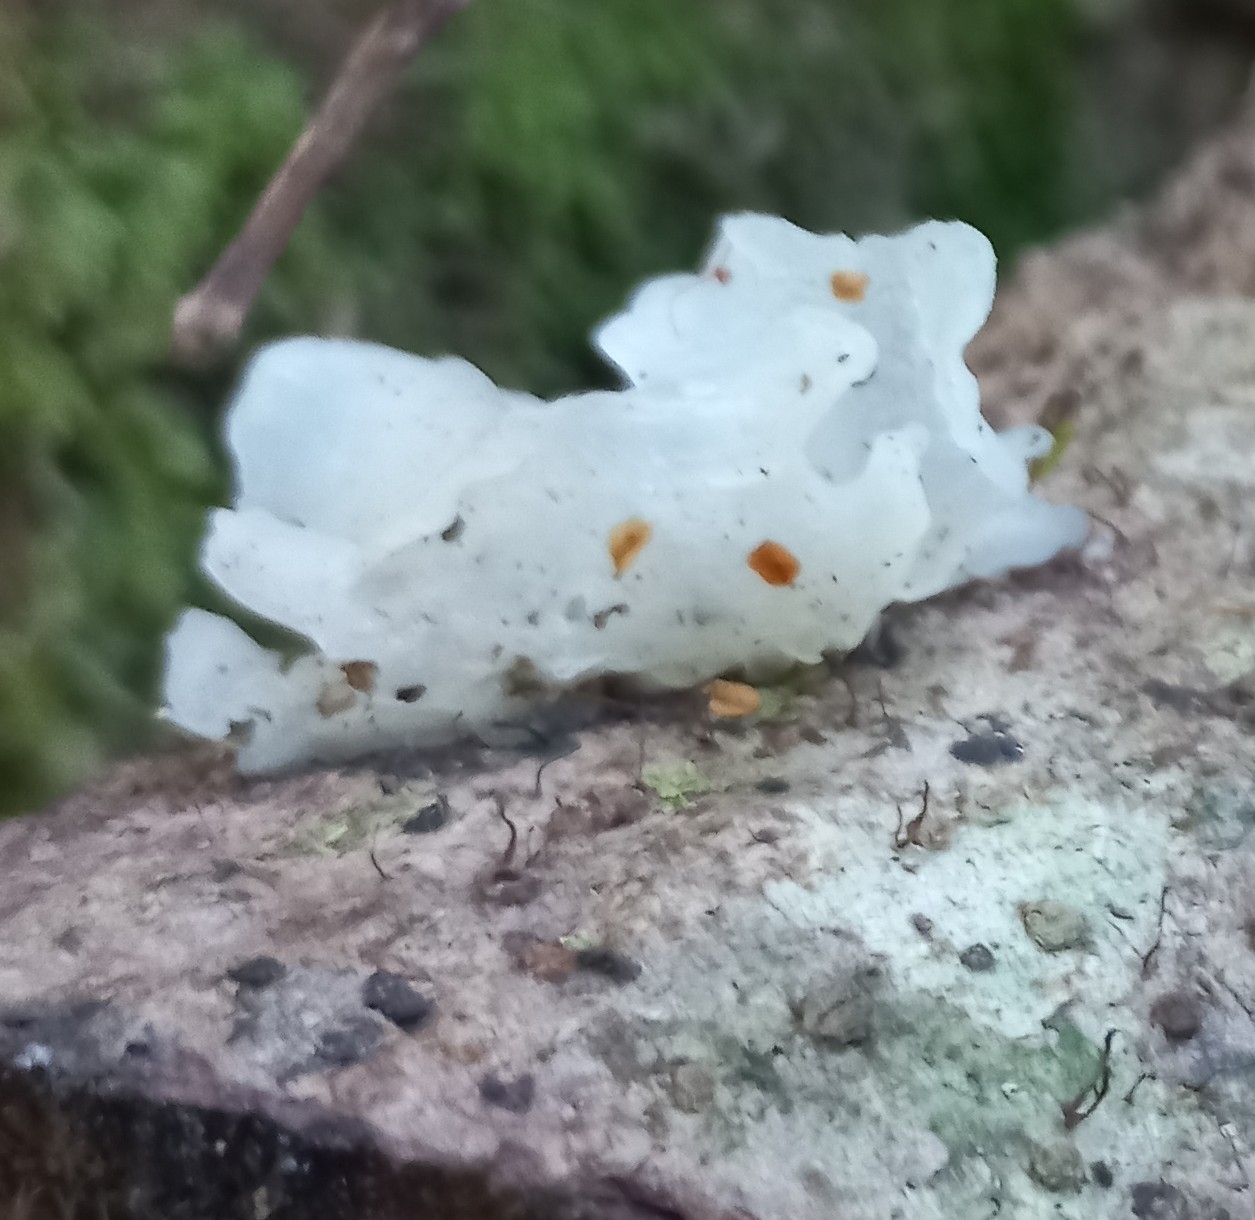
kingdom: Fungi
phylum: Basidiomycota
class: Tremellomycetes
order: Tremellales
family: Tremellaceae
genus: Tremella
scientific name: Tremella fuciformis
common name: Snow fungus
